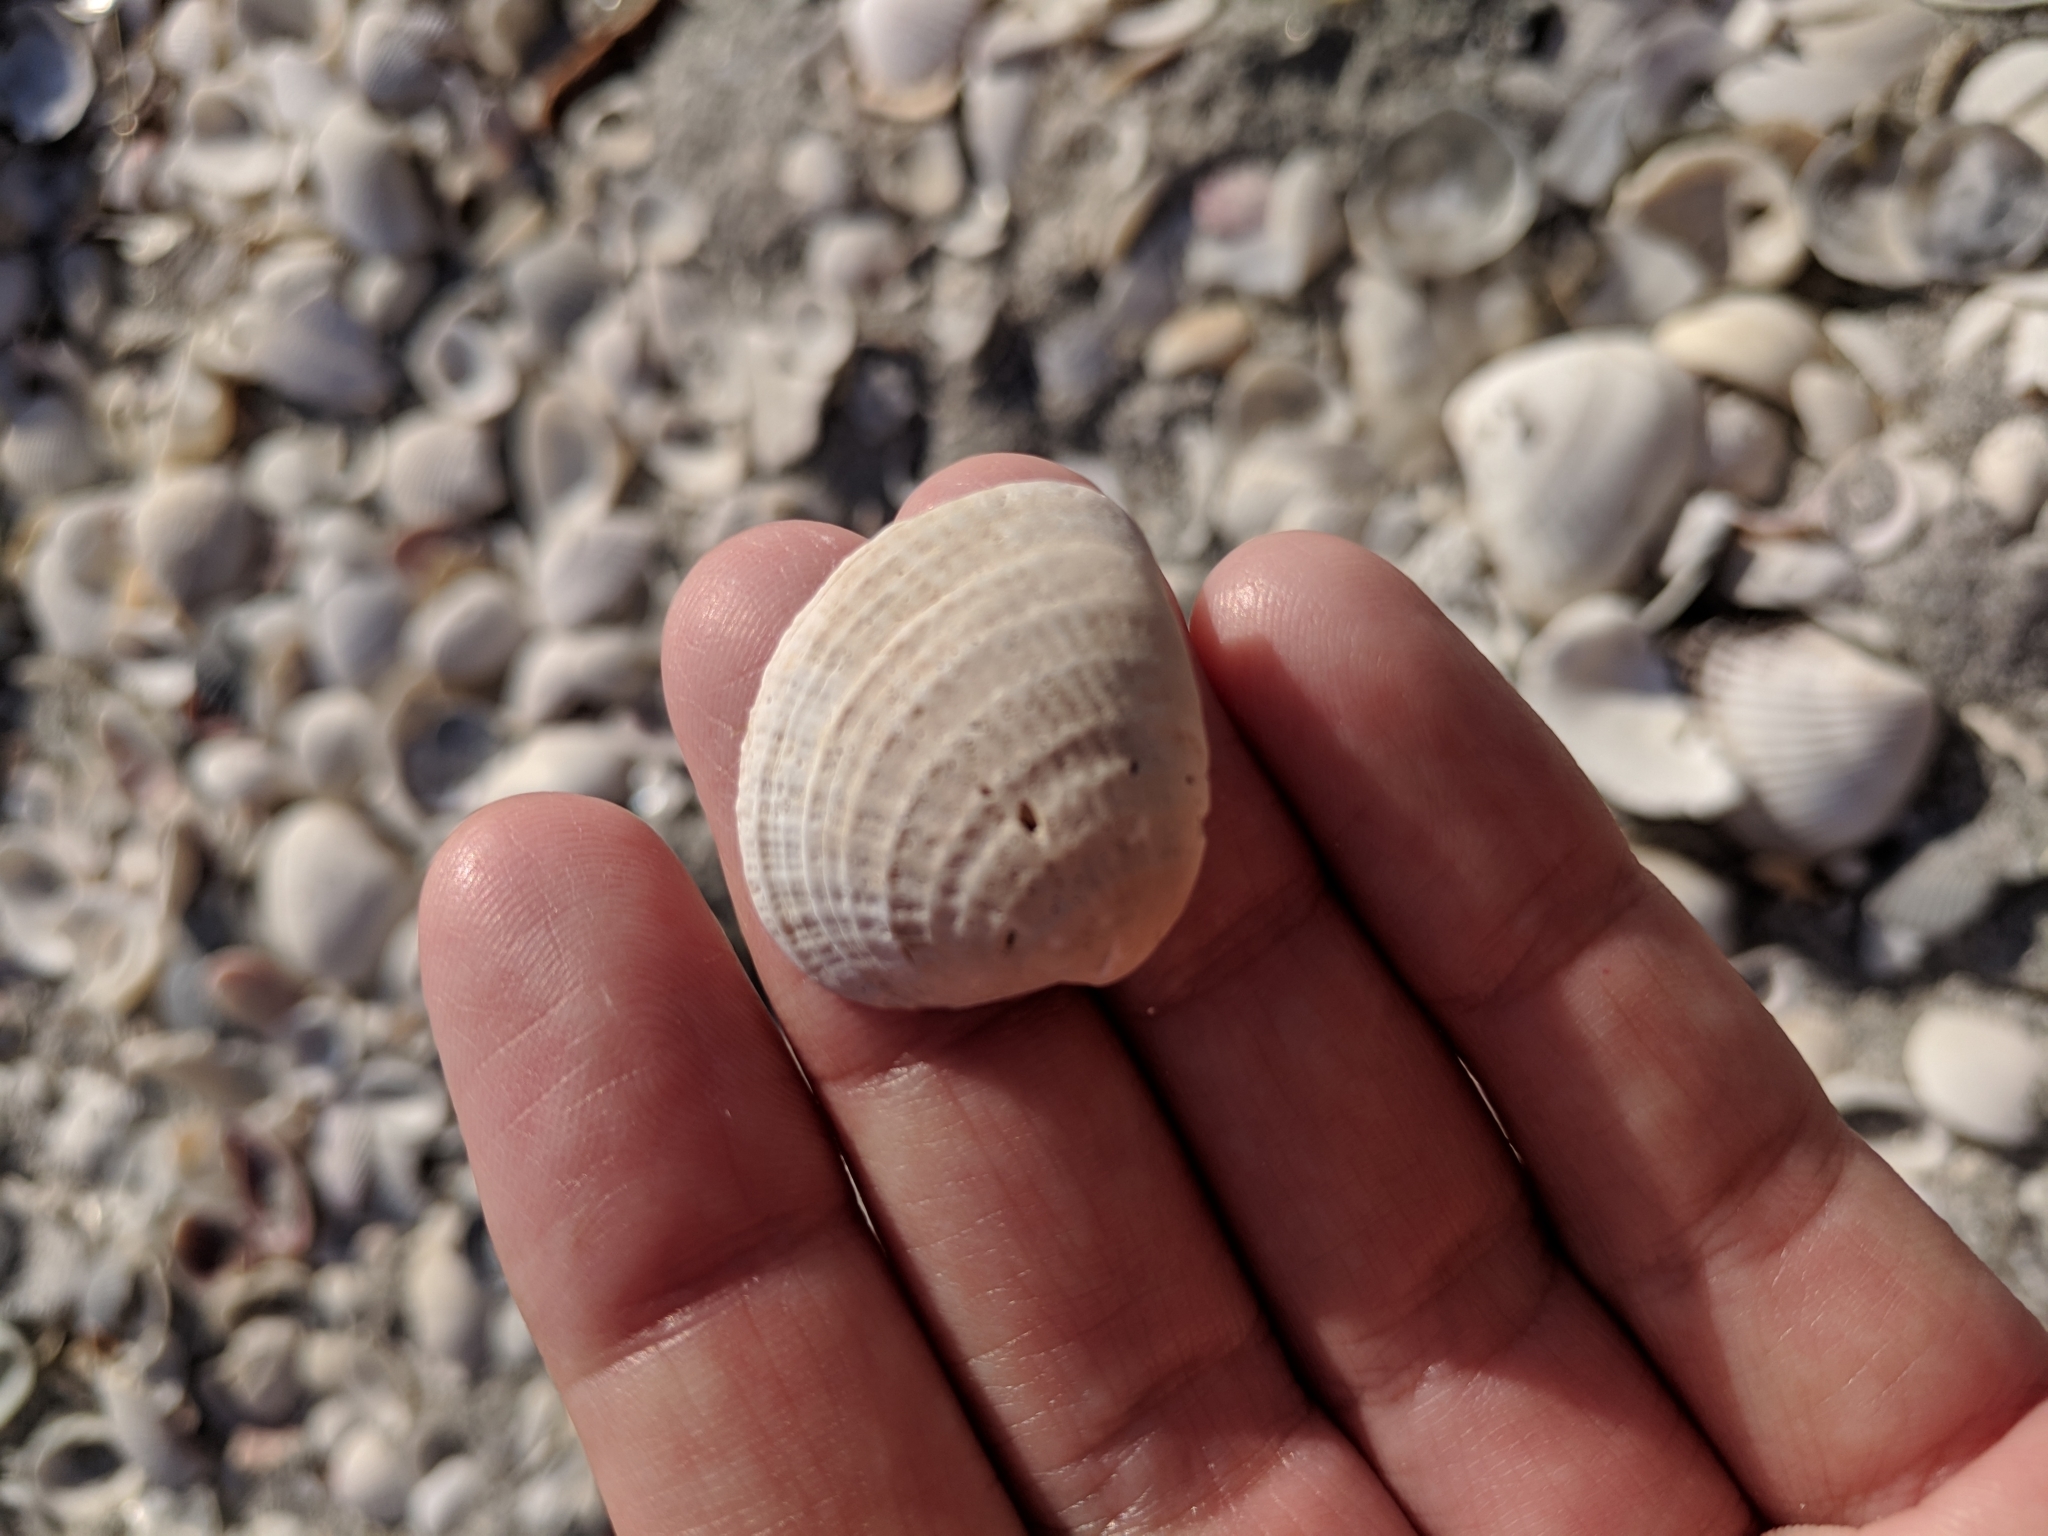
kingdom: Animalia
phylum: Mollusca
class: Bivalvia
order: Venerida
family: Veneridae
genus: Chione
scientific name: Chione elevata
